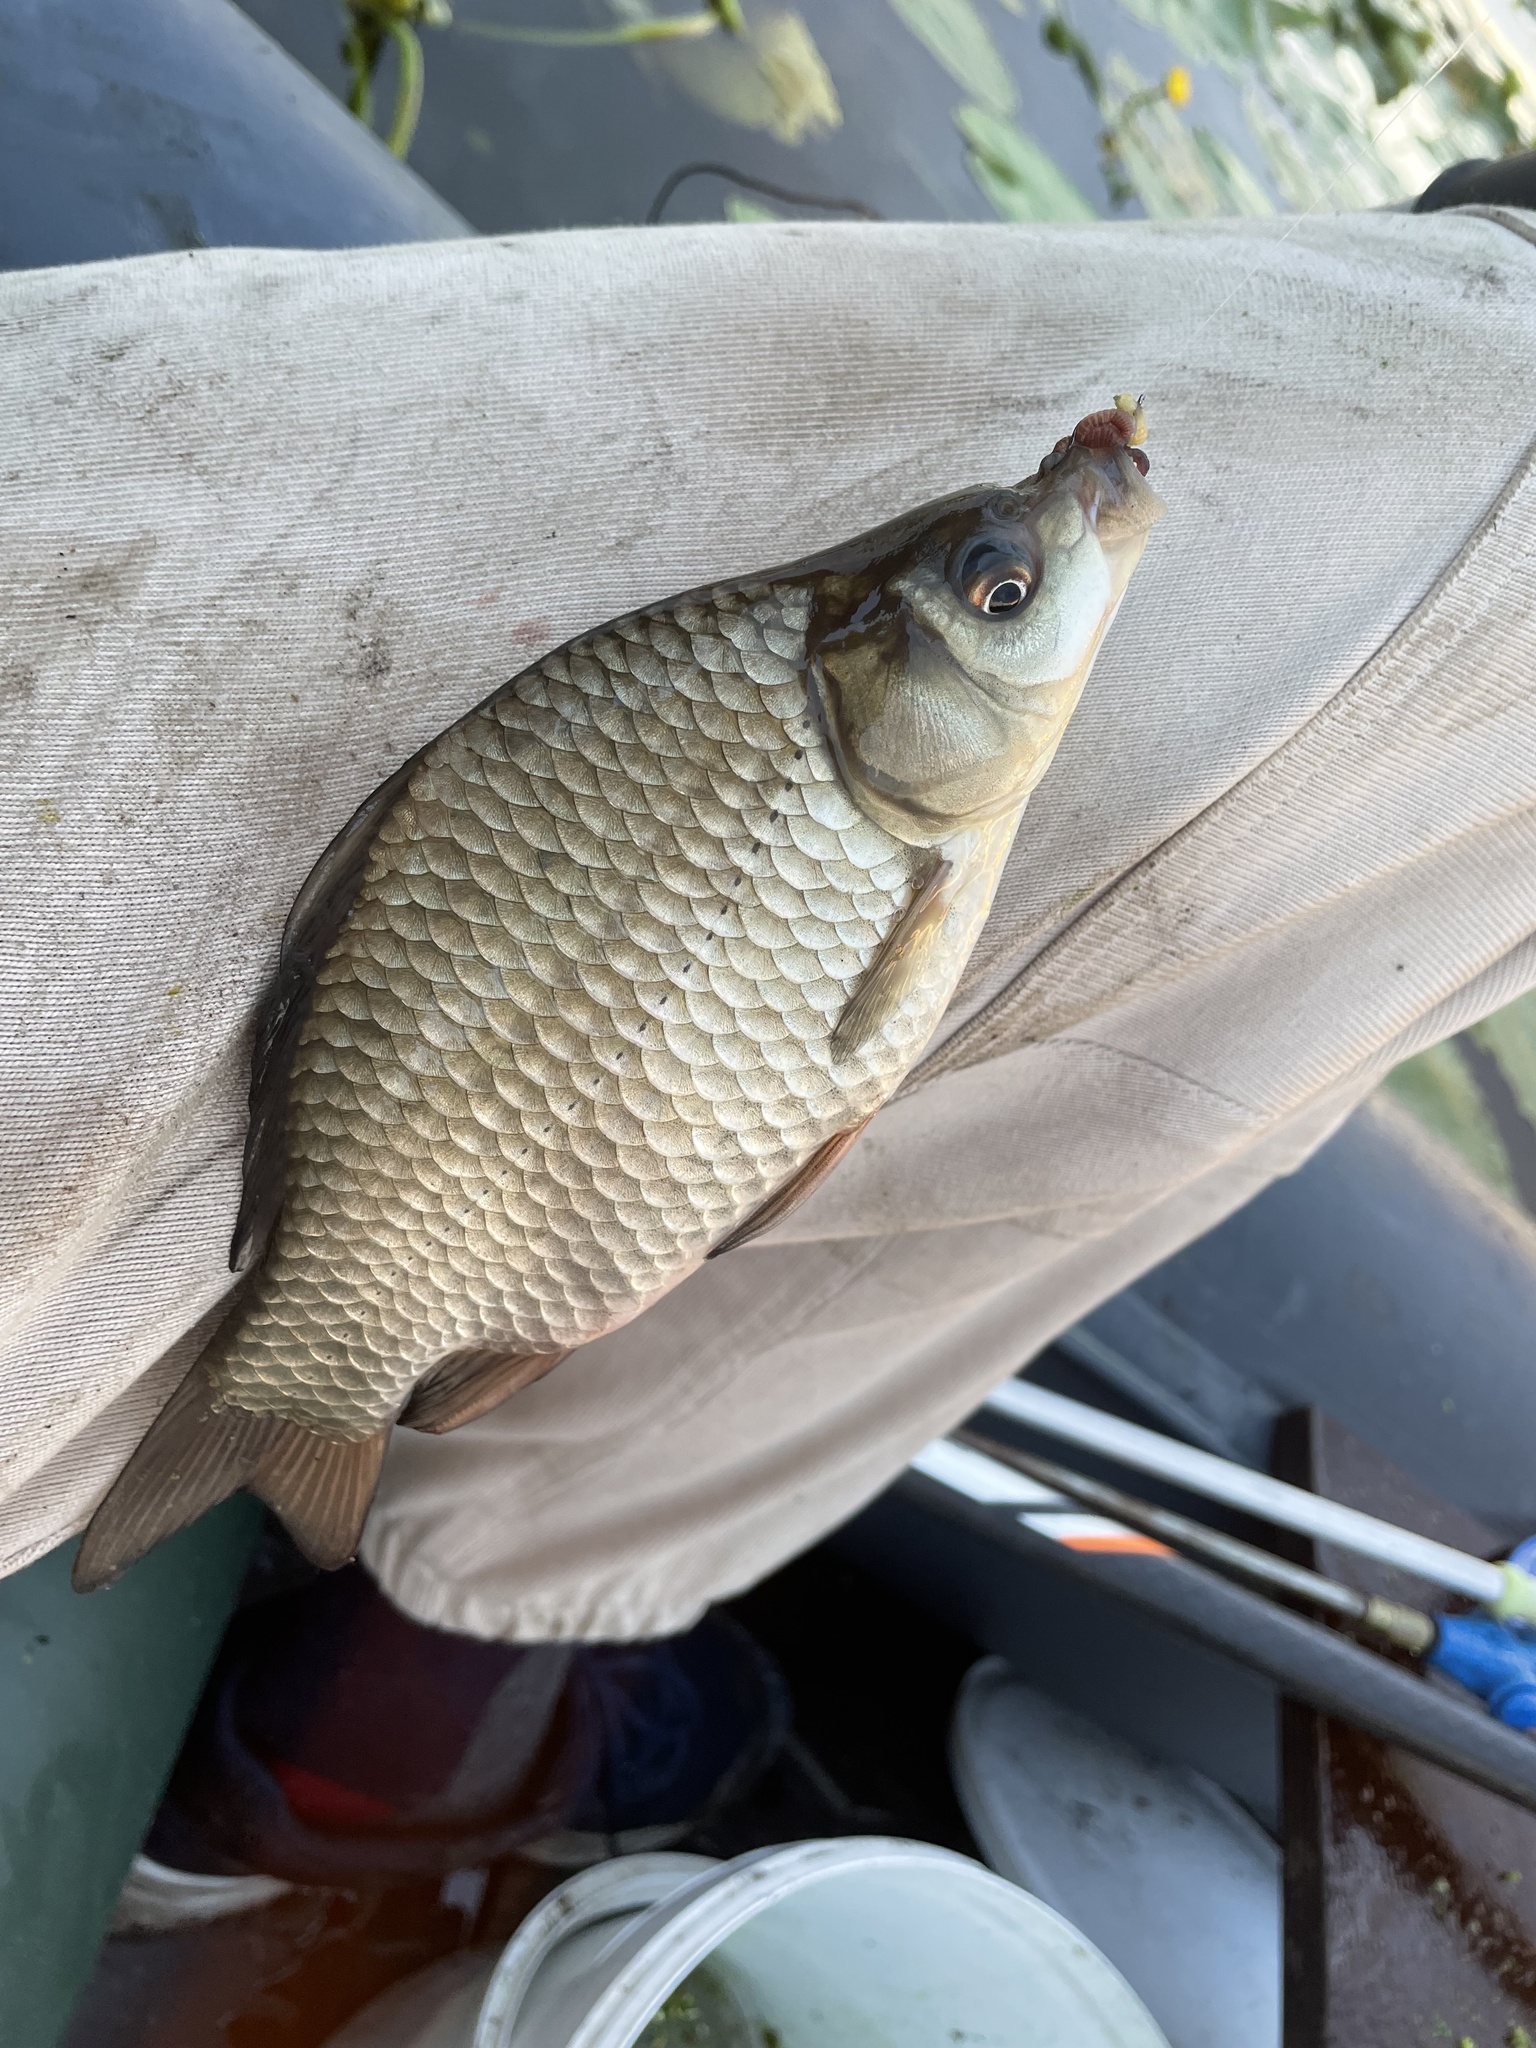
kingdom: Animalia
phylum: Chordata
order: Cypriniformes
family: Cyprinidae
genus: Carassius
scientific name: Carassius gibelio
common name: Prussian carp
